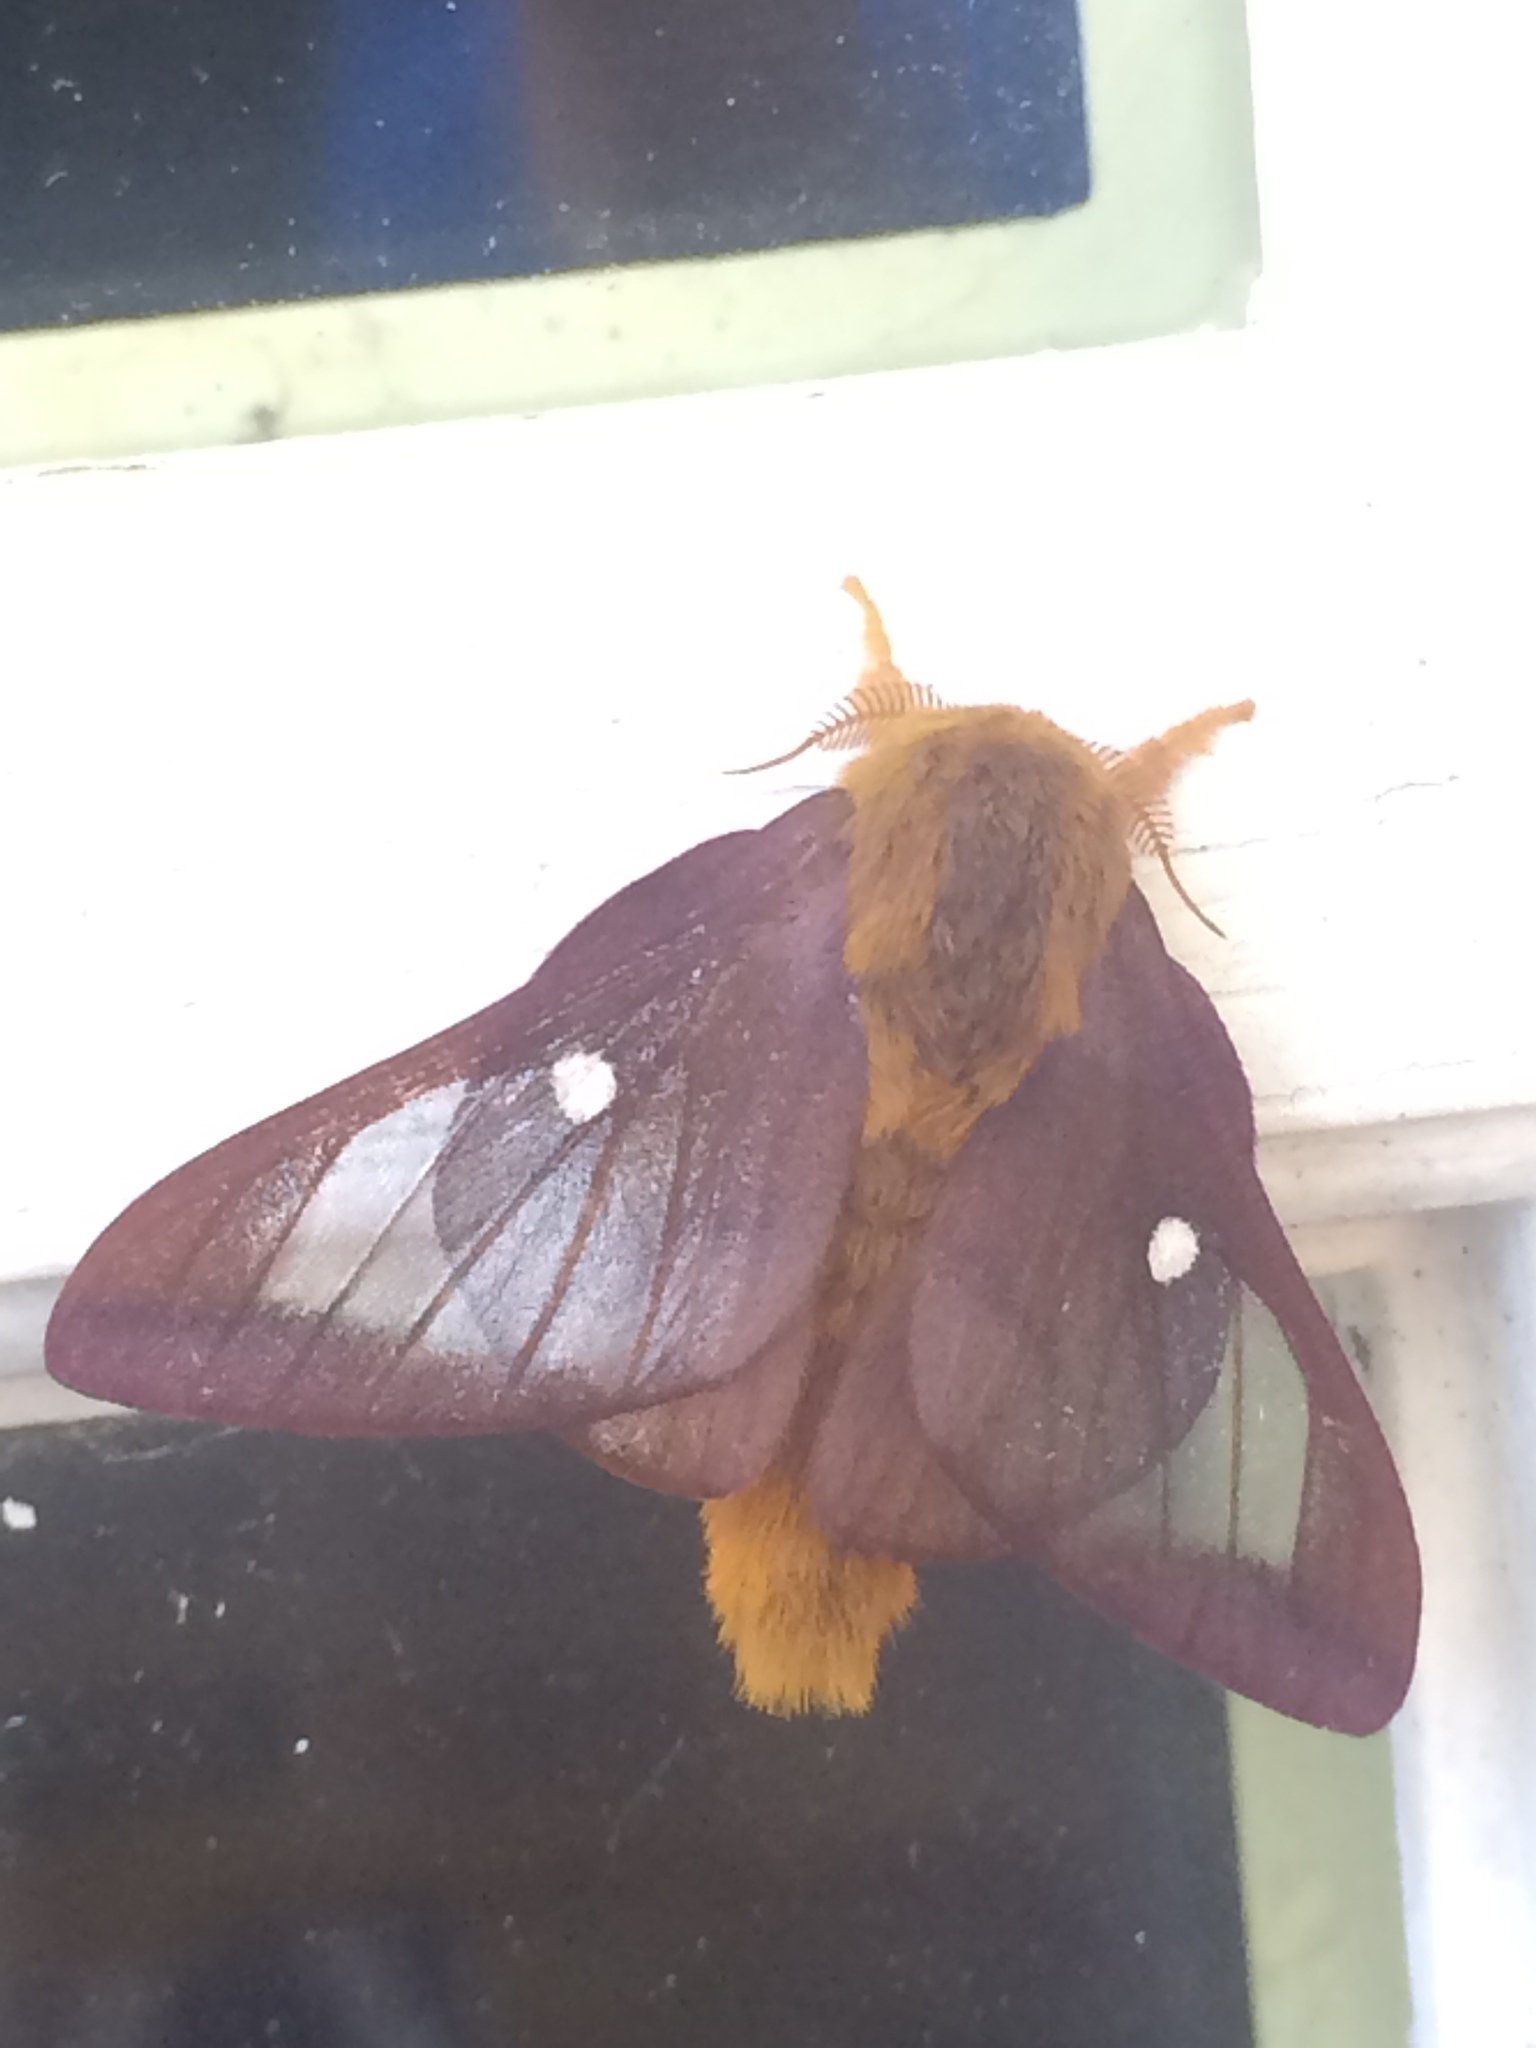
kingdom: Animalia
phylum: Arthropoda
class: Insecta
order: Lepidoptera
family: Saturniidae
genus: Anisota
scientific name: Anisota virginiensis
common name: Pink striped oakworm moth
